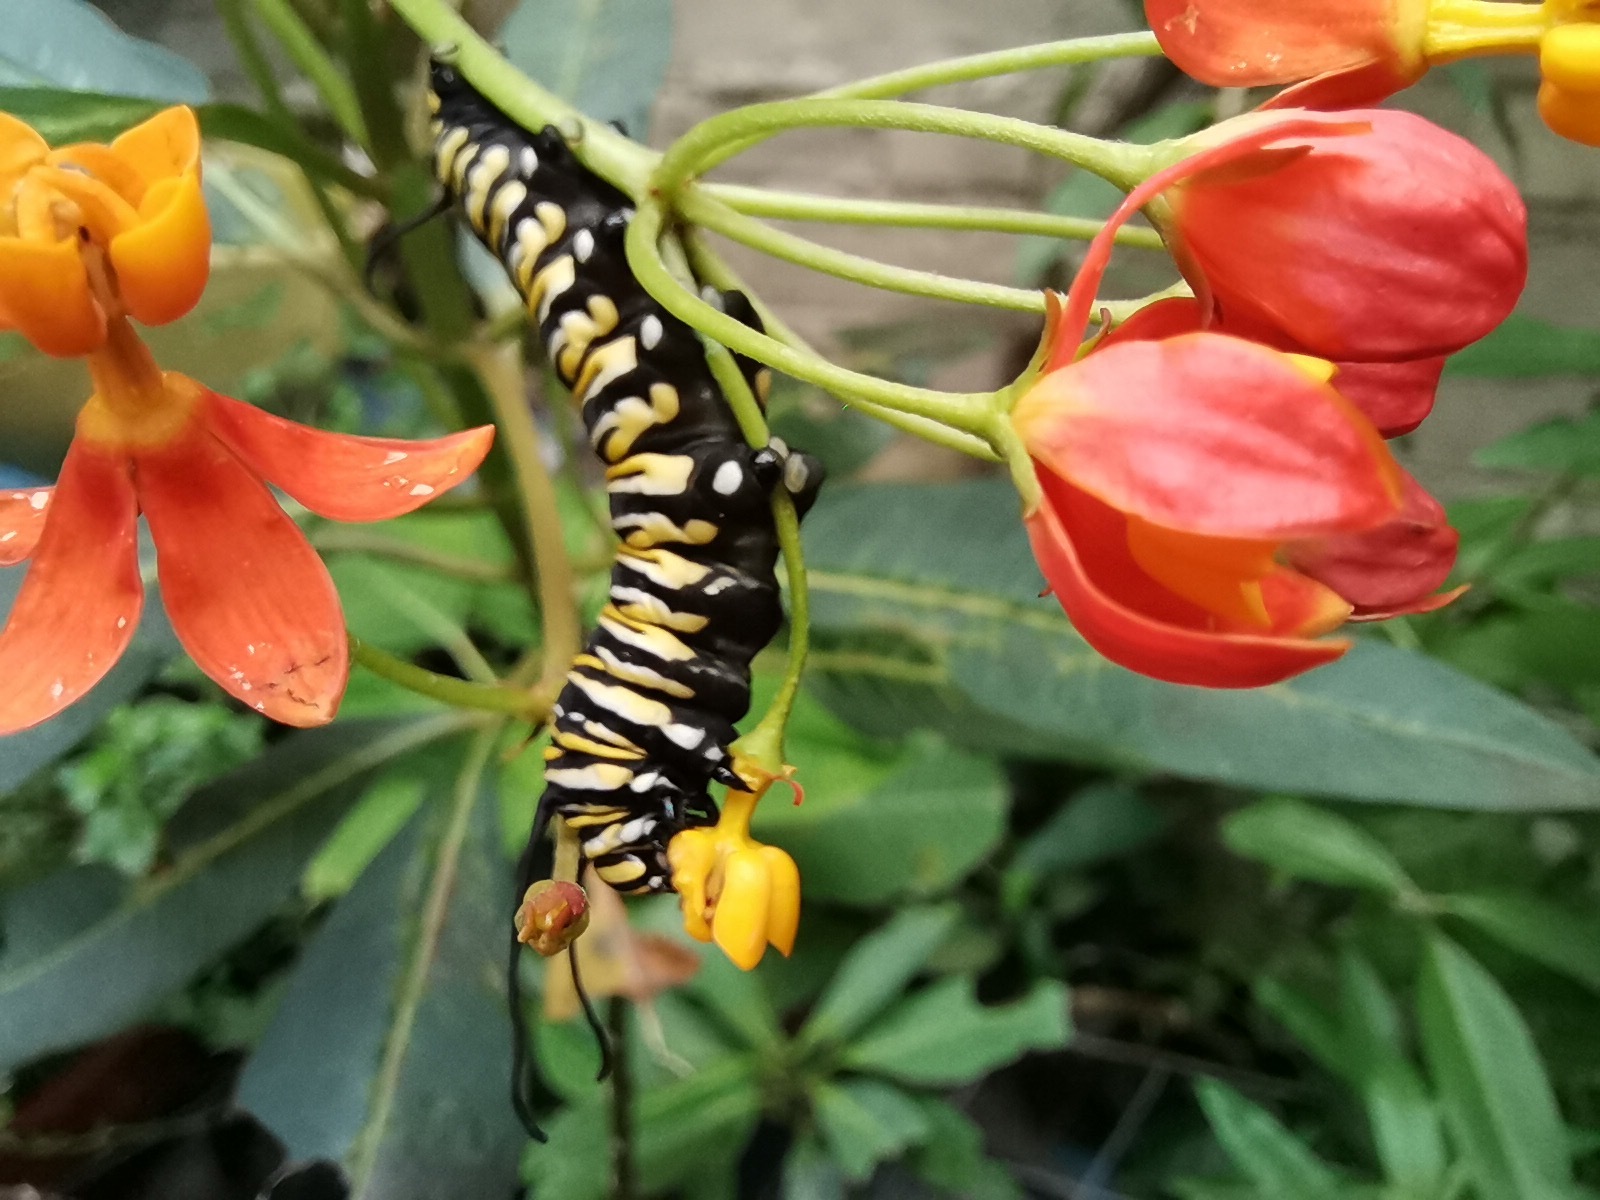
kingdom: Animalia
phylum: Arthropoda
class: Insecta
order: Lepidoptera
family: Nymphalidae
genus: Danaus
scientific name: Danaus plexippus
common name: Monarch
